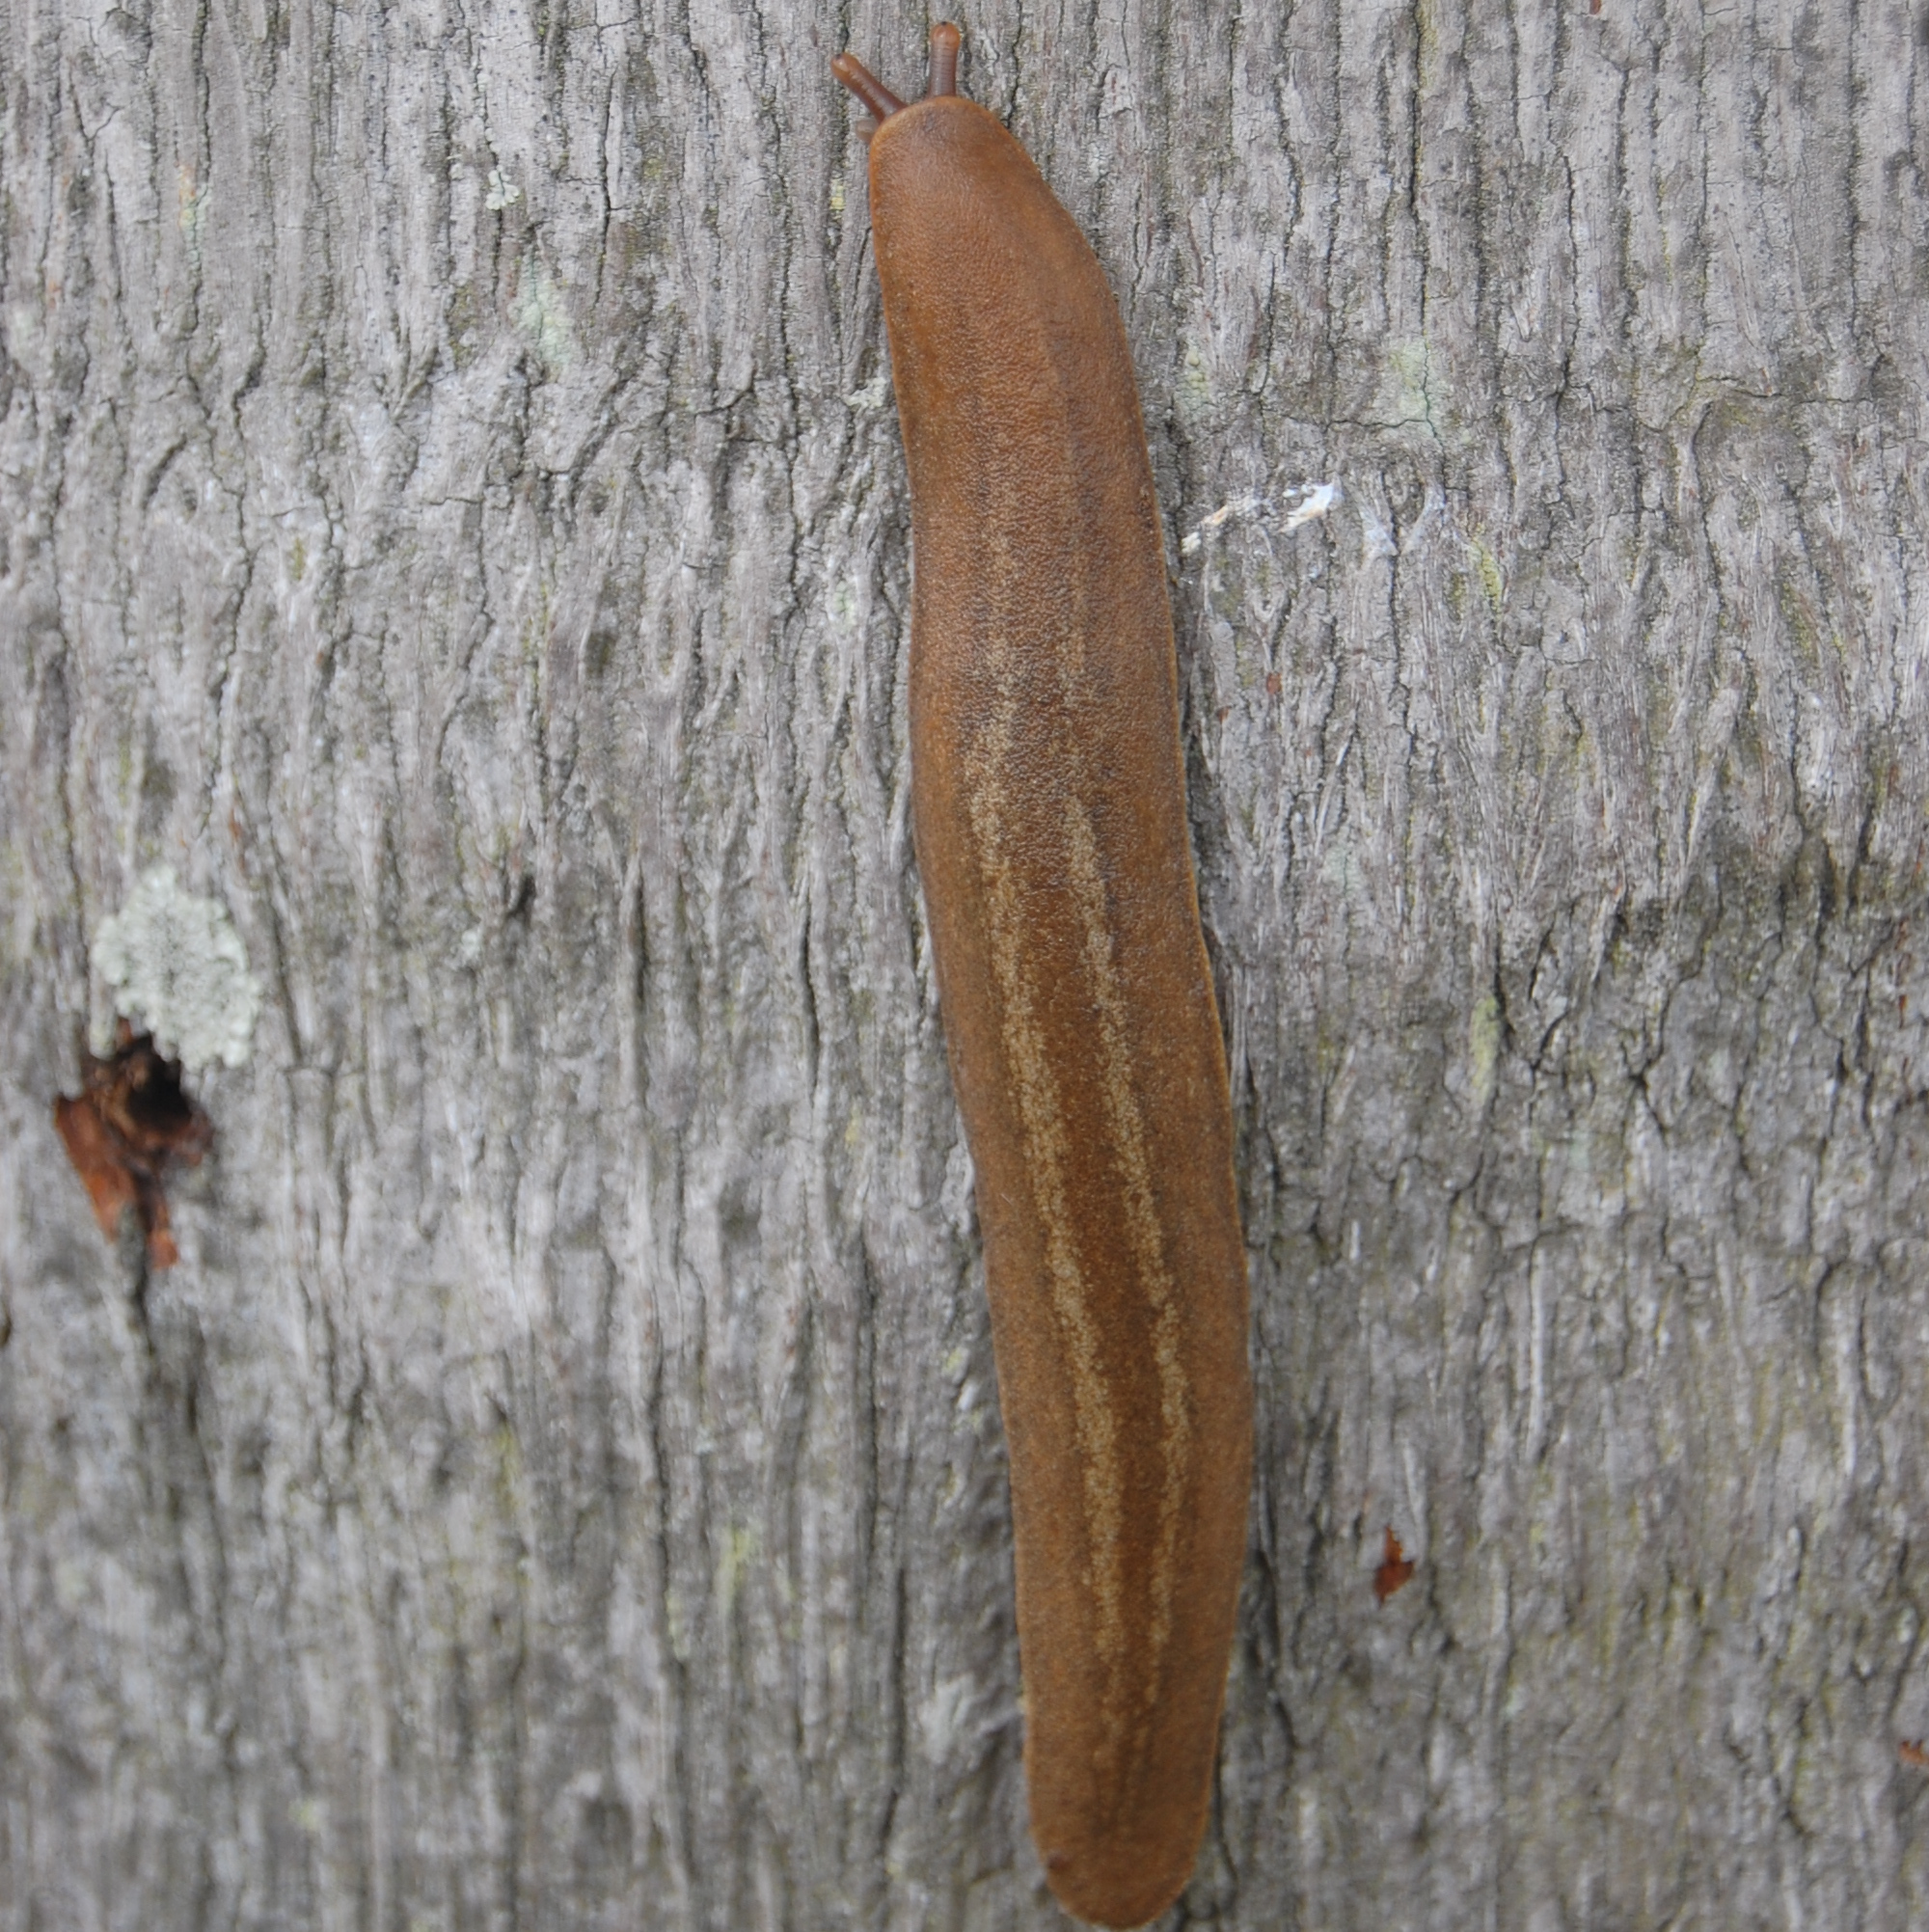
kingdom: Animalia
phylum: Mollusca
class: Gastropoda
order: Systellommatophora
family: Veronicellidae
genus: Phyllocaulis
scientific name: Phyllocaulis renschi
